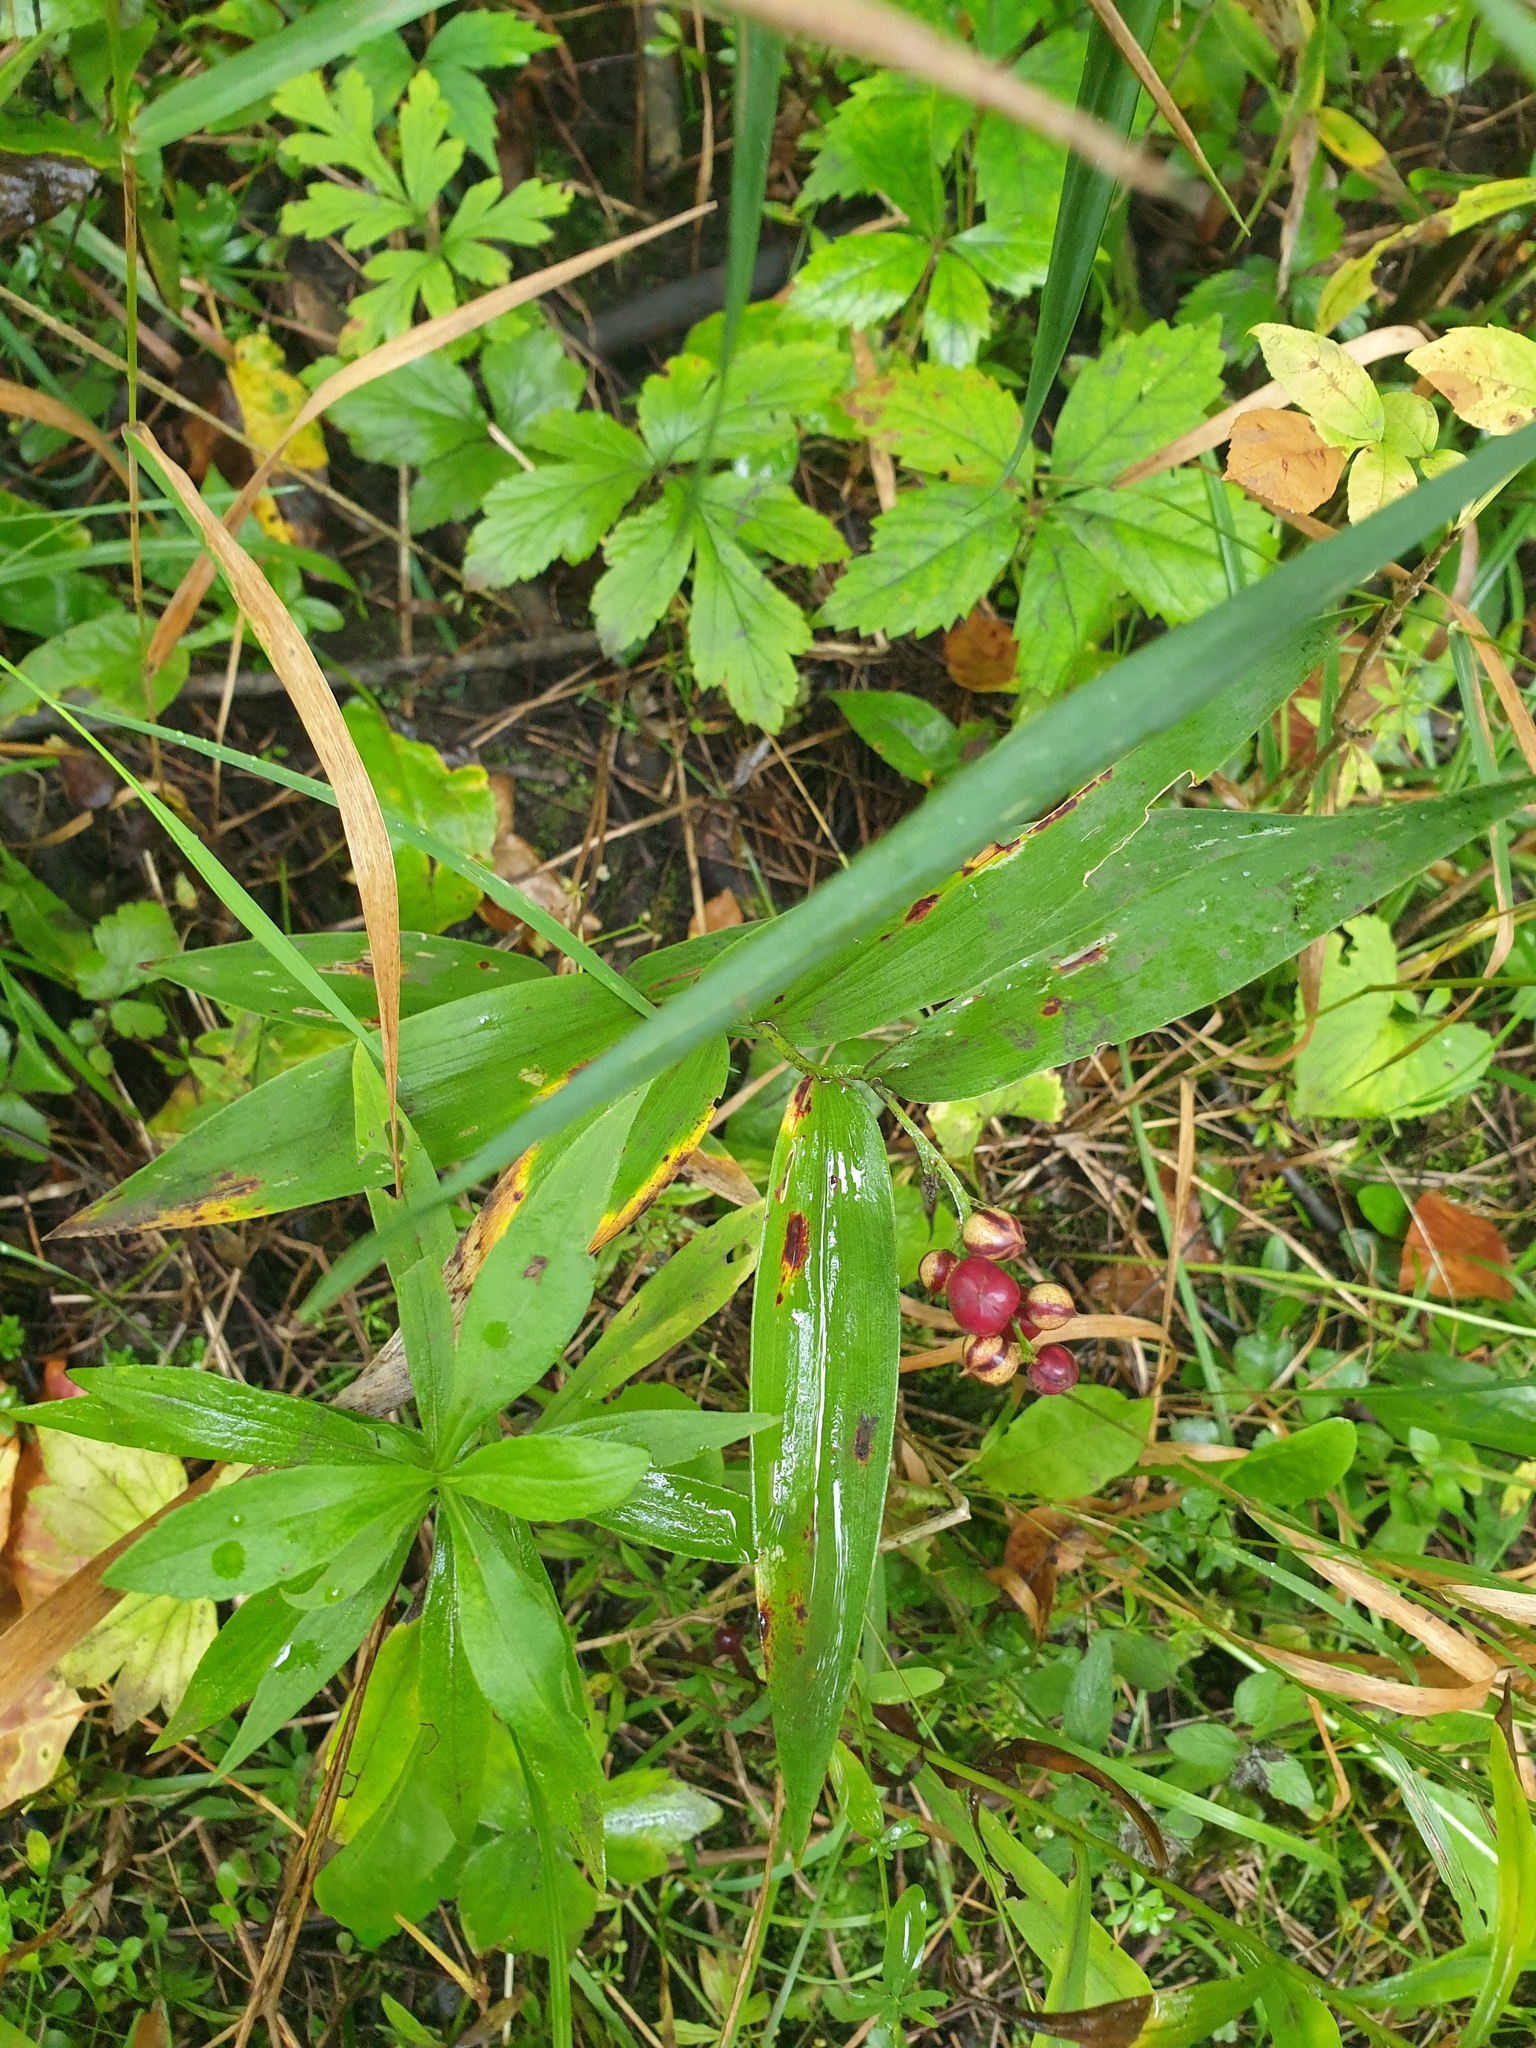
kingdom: Plantae
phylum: Tracheophyta
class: Liliopsida
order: Asparagales
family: Asparagaceae
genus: Maianthemum
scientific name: Maianthemum stellatum
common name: Little false solomon's seal
